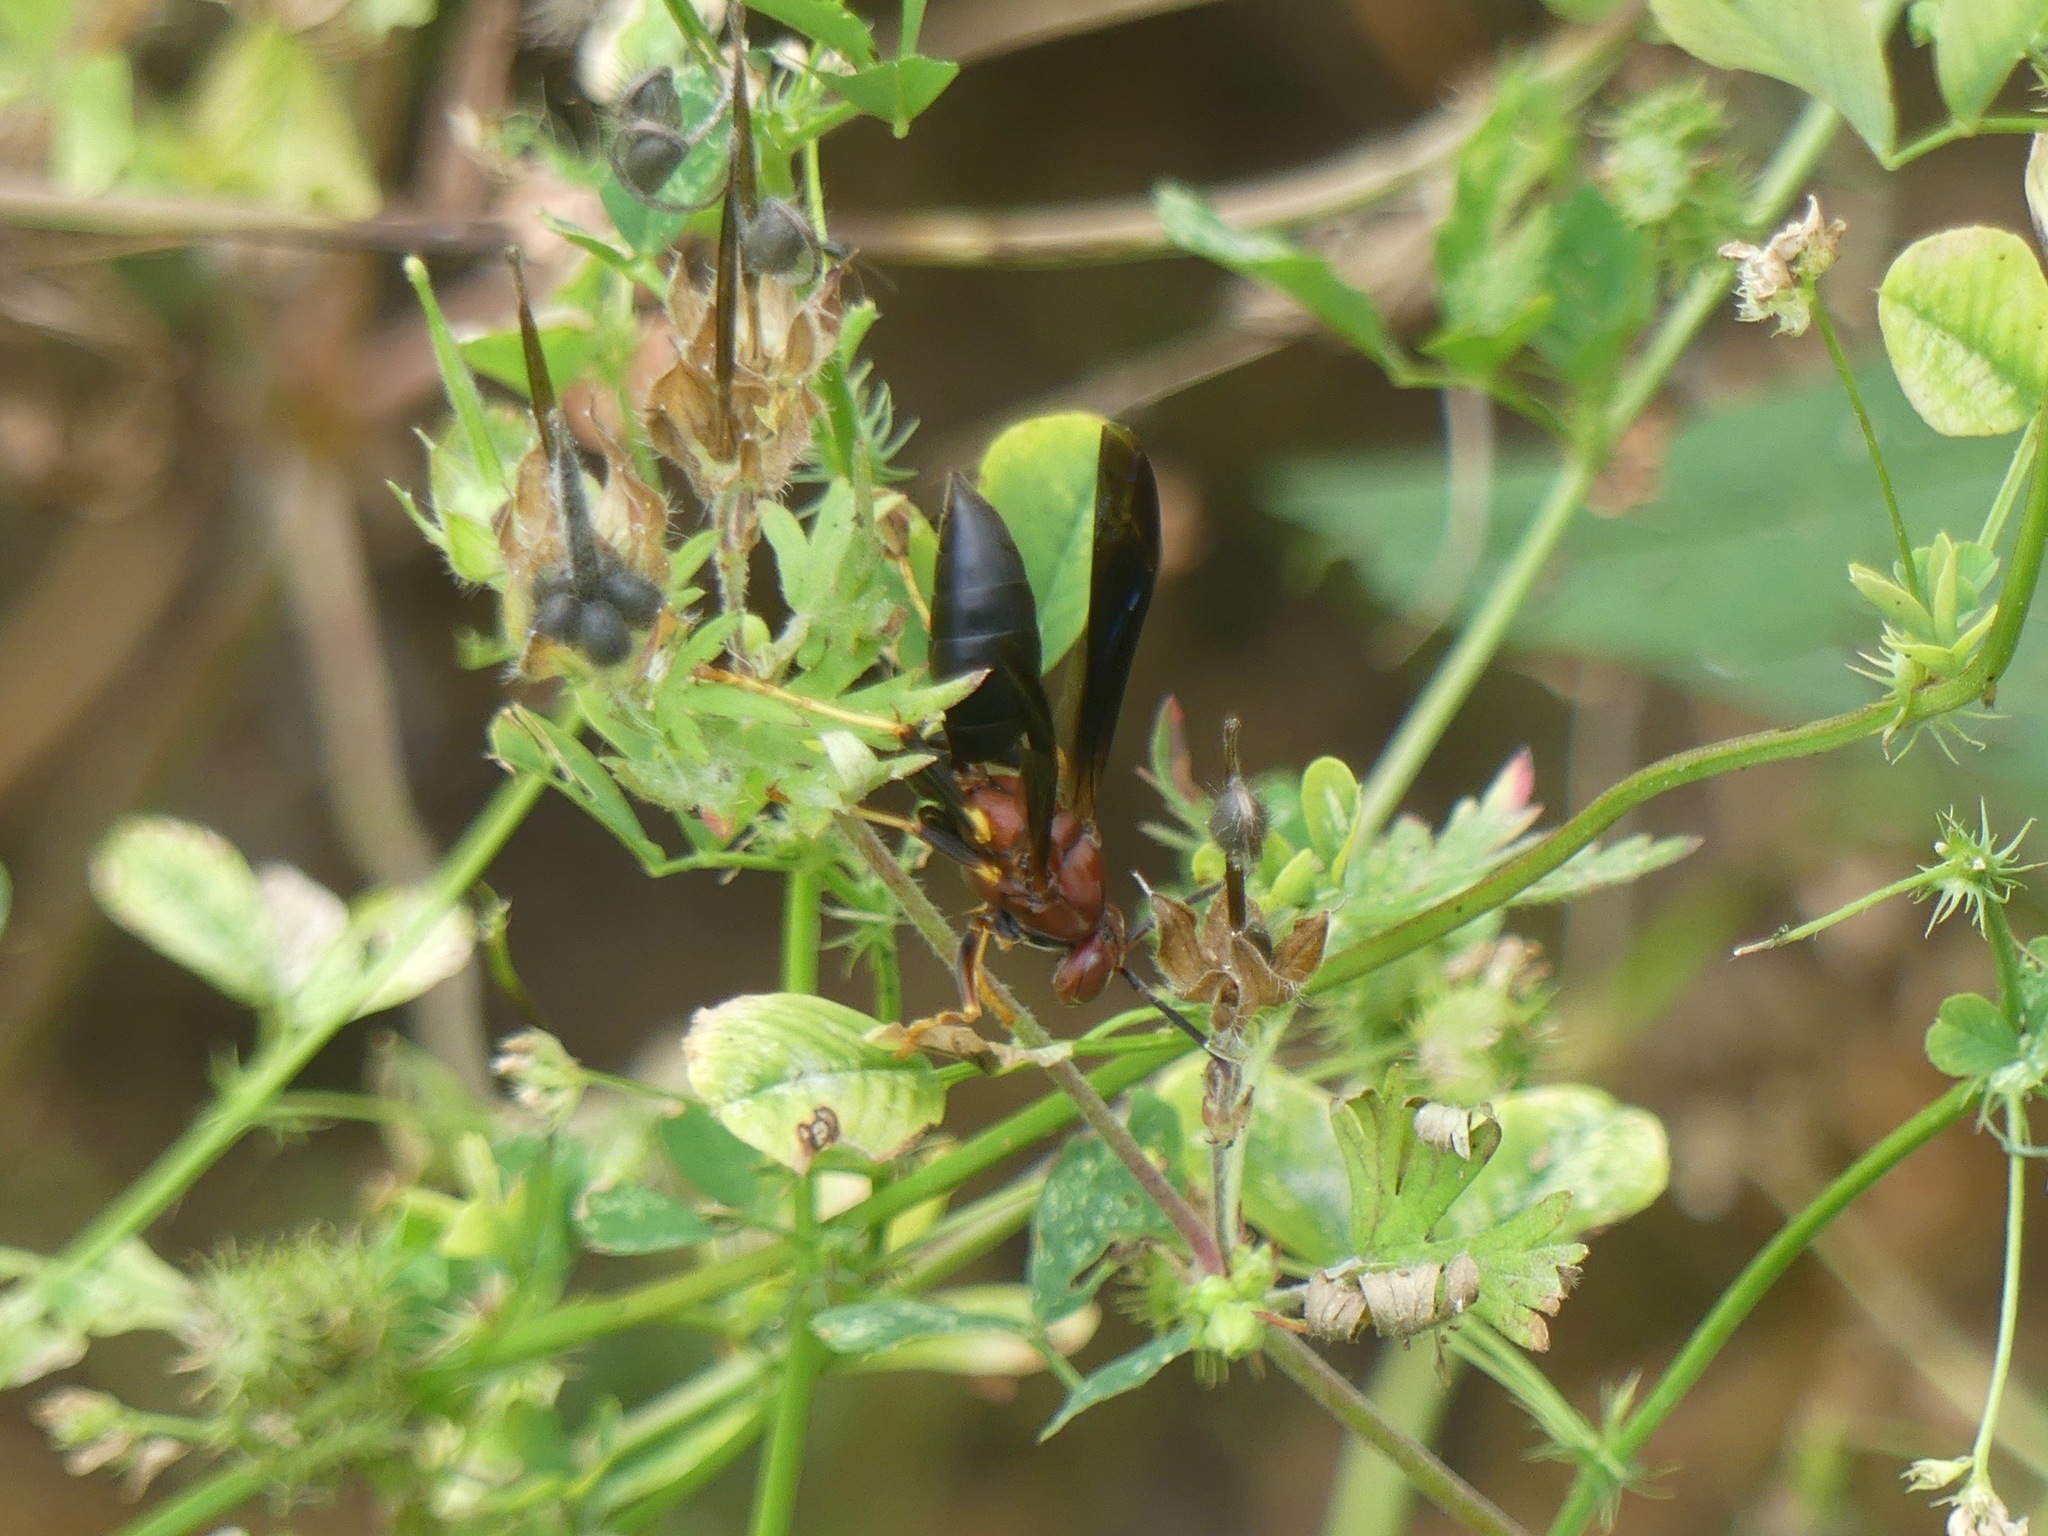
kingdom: Animalia
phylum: Arthropoda
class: Insecta
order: Hymenoptera
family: Eumenidae
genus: Polistes
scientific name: Polistes metricus
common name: Metric paper wasp
